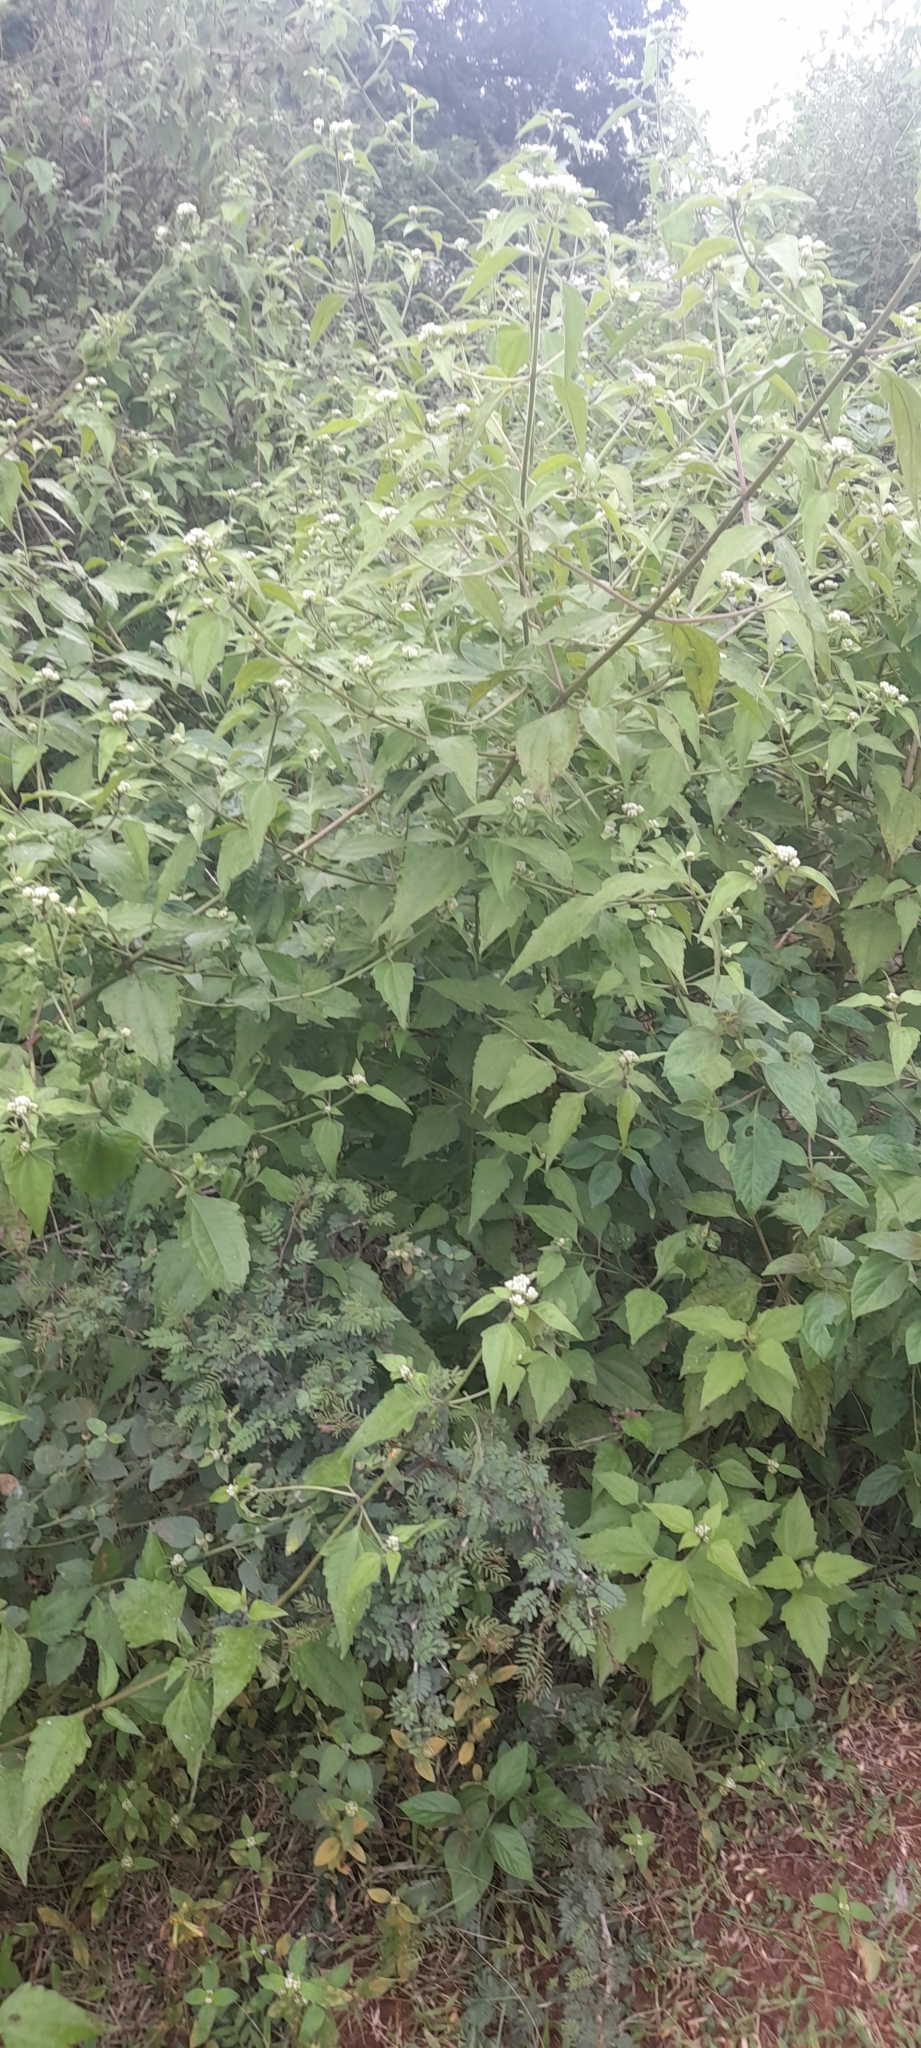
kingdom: Plantae
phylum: Tracheophyta
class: Magnoliopsida
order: Asterales
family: Asteraceae
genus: Chromolaena
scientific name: Chromolaena odorata
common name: Siamweed
